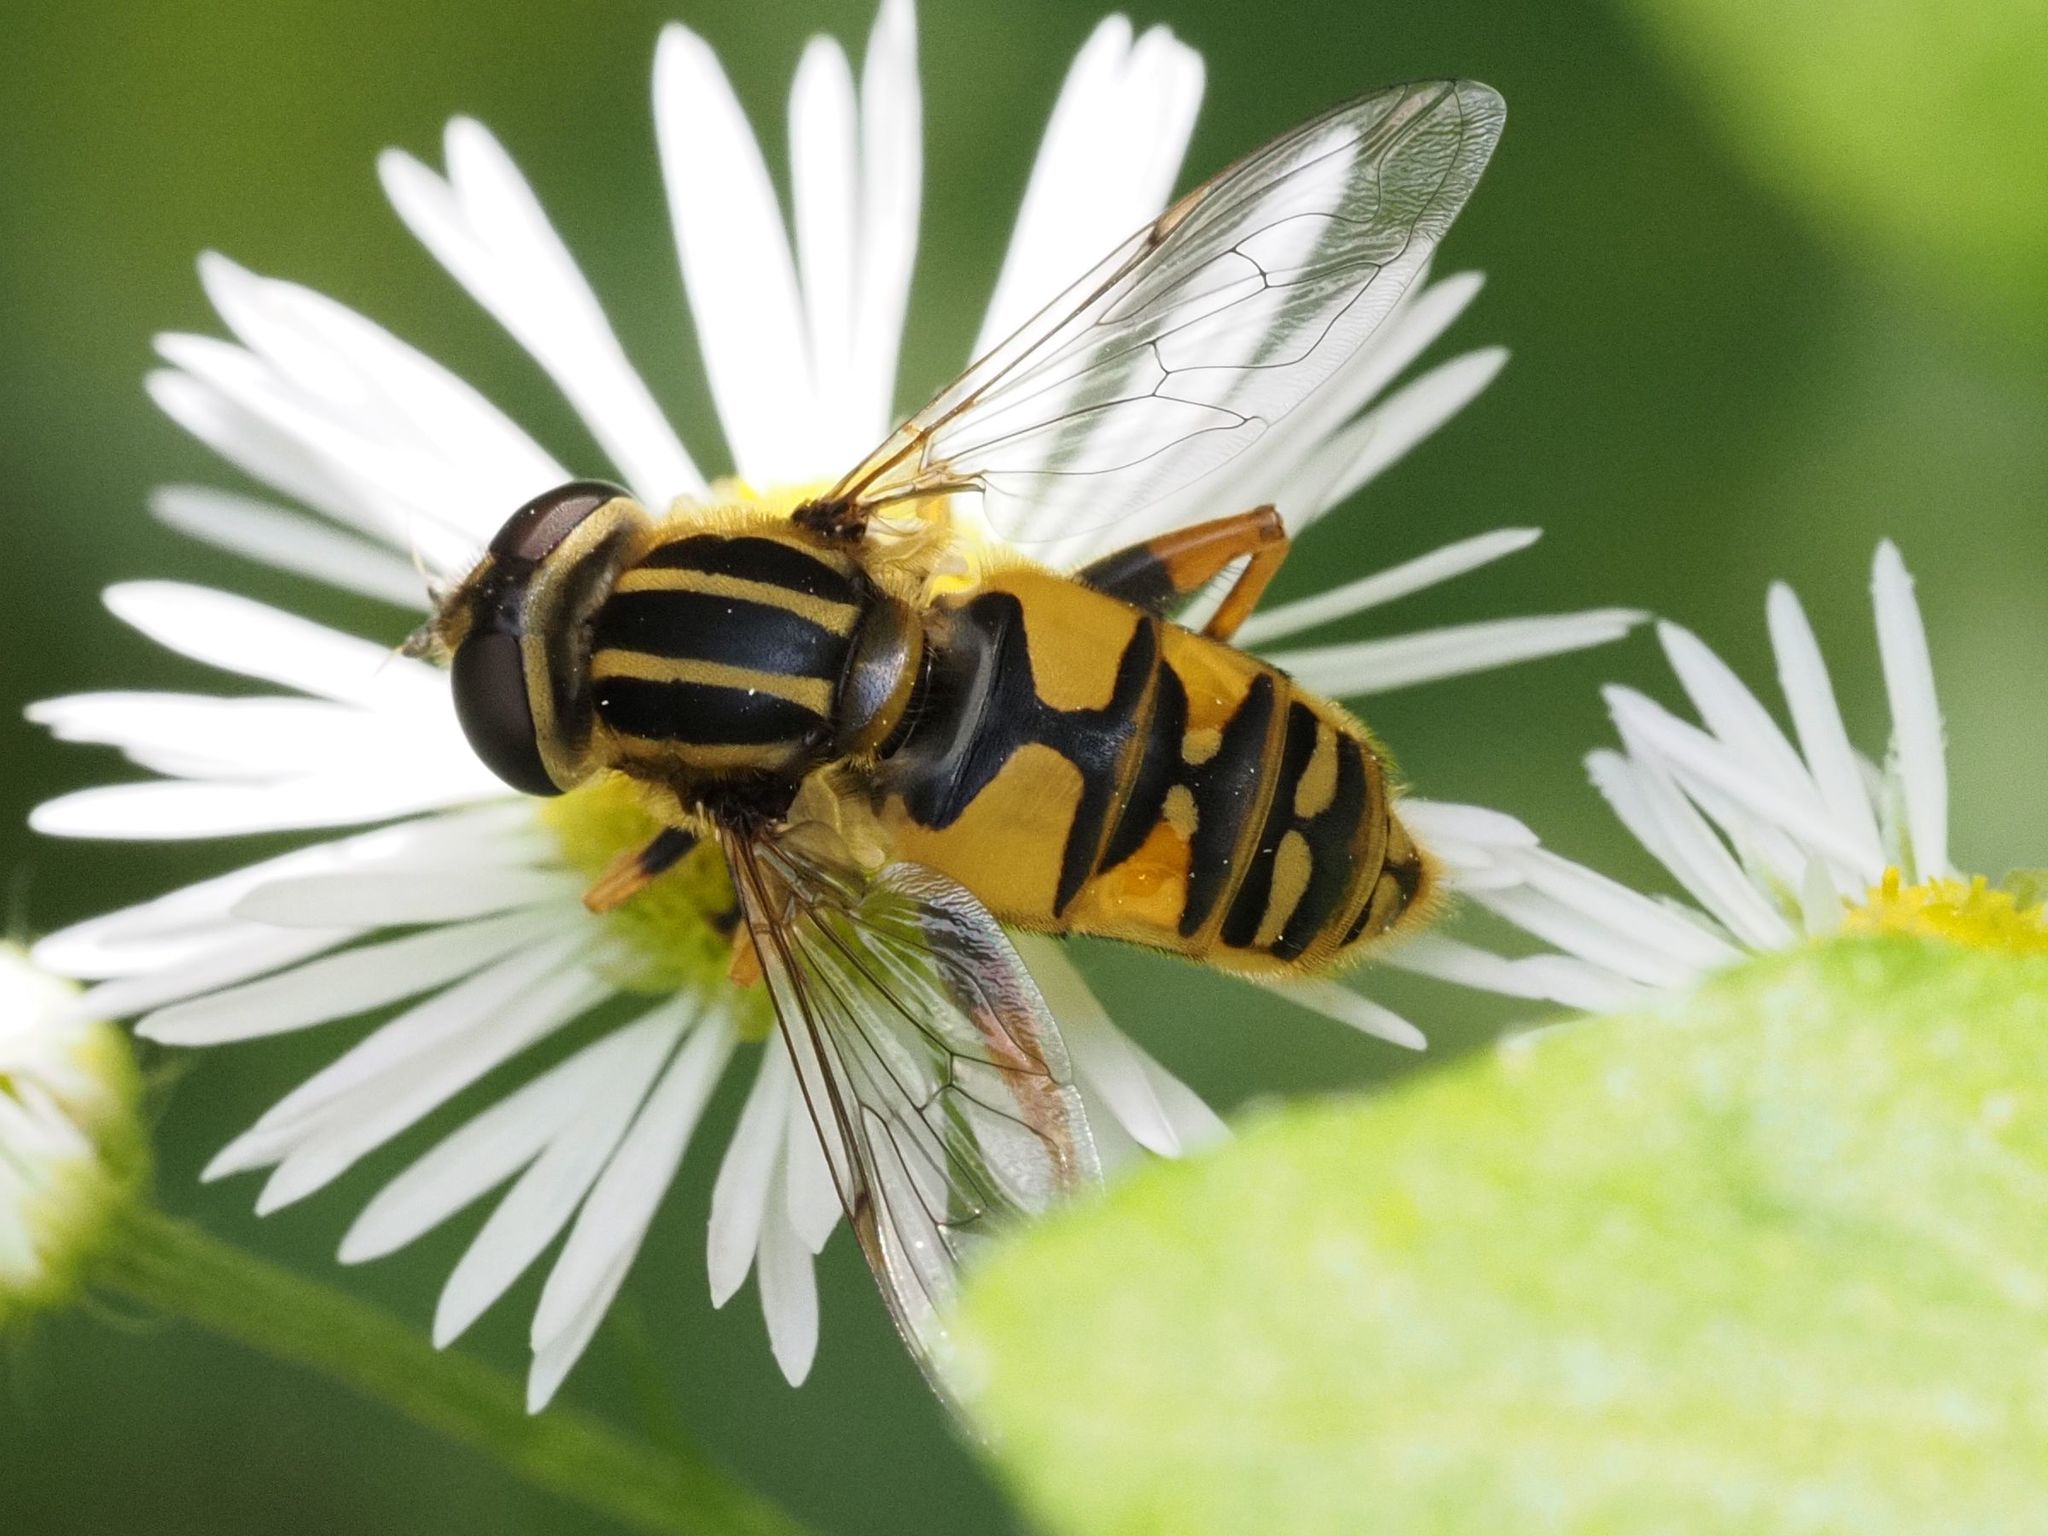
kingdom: Animalia
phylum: Arthropoda
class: Insecta
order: Diptera
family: Syrphidae
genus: Helophilus
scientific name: Helophilus pendulus
